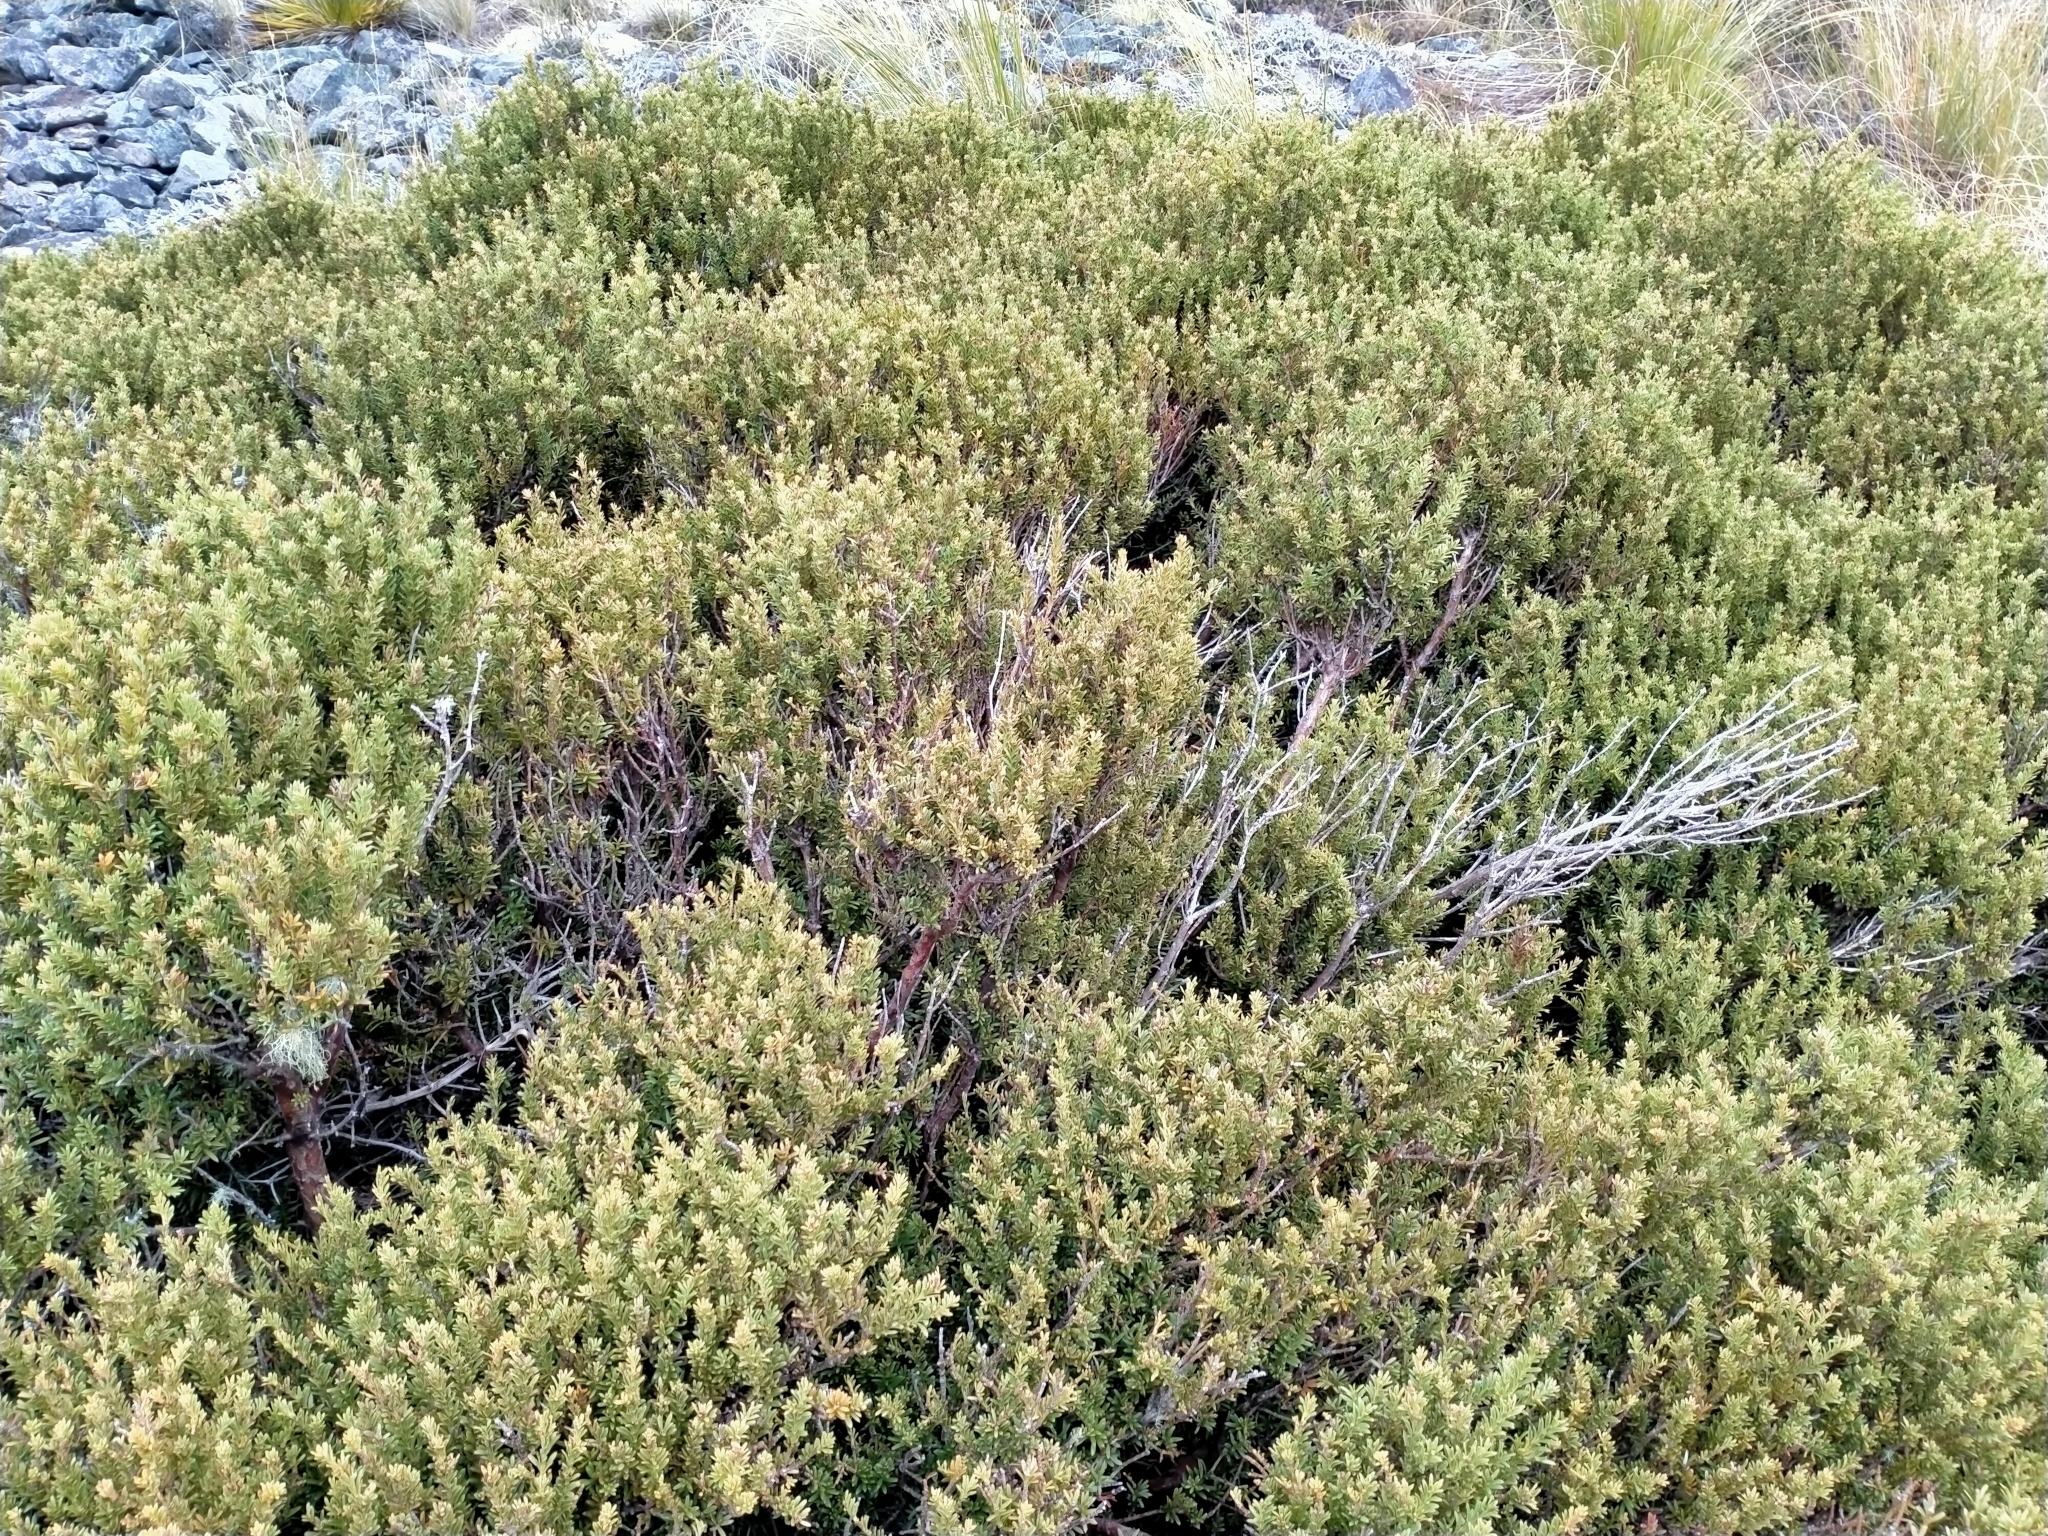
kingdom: Plantae
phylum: Tracheophyta
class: Pinopsida
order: Pinales
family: Podocarpaceae
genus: Podocarpus
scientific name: Podocarpus nivalis
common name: Alpine totara
